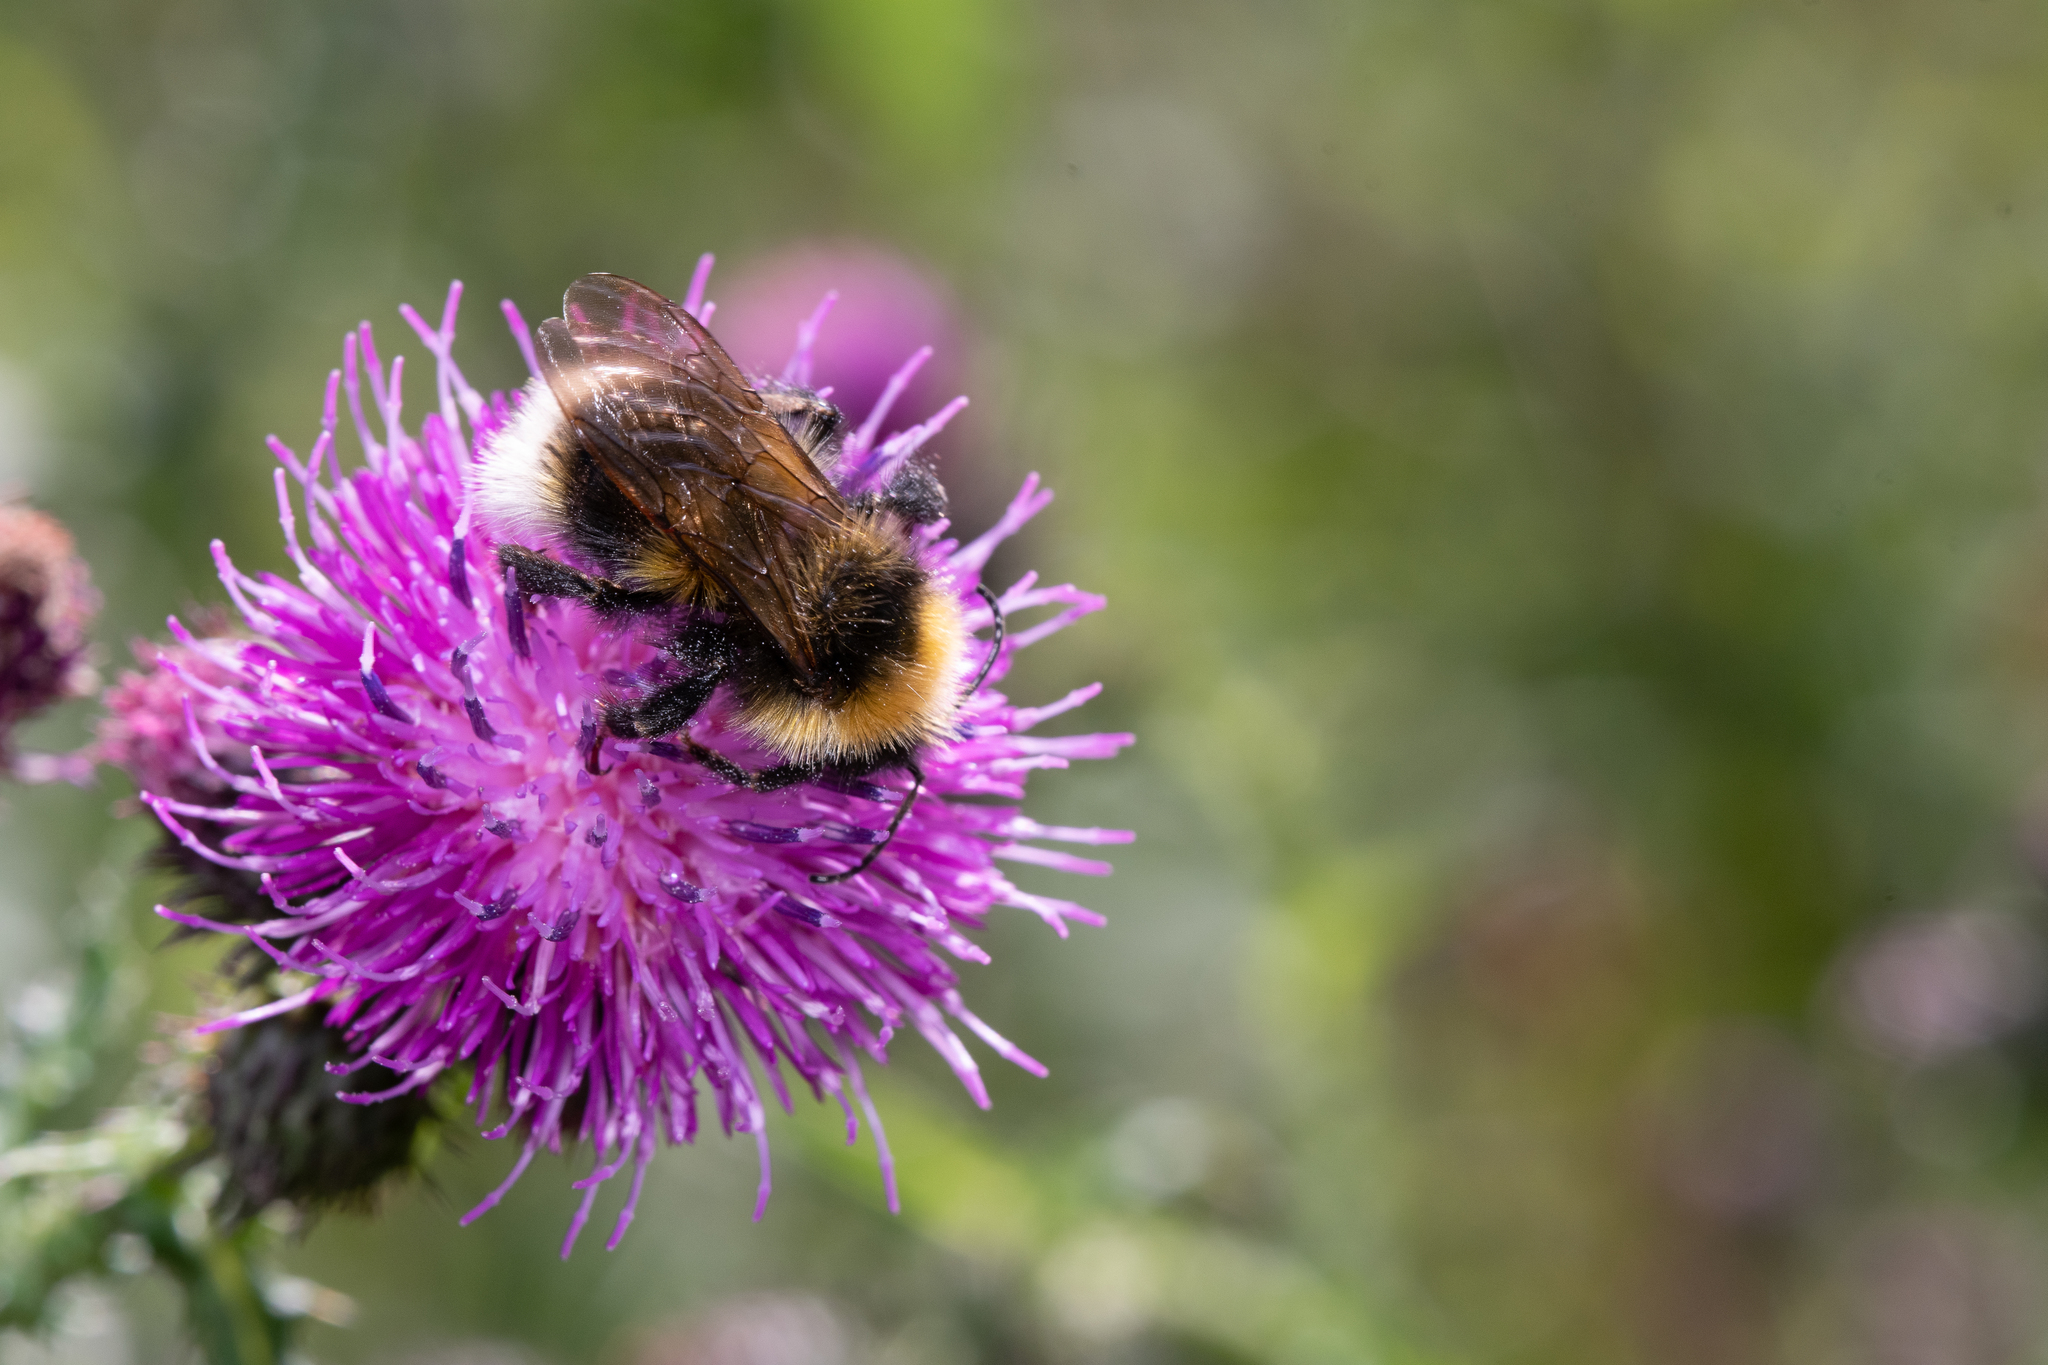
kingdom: Animalia
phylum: Arthropoda
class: Insecta
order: Hymenoptera
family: Apidae
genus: Bombus
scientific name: Bombus bohemicus
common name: Gypsy cuckoo bee
